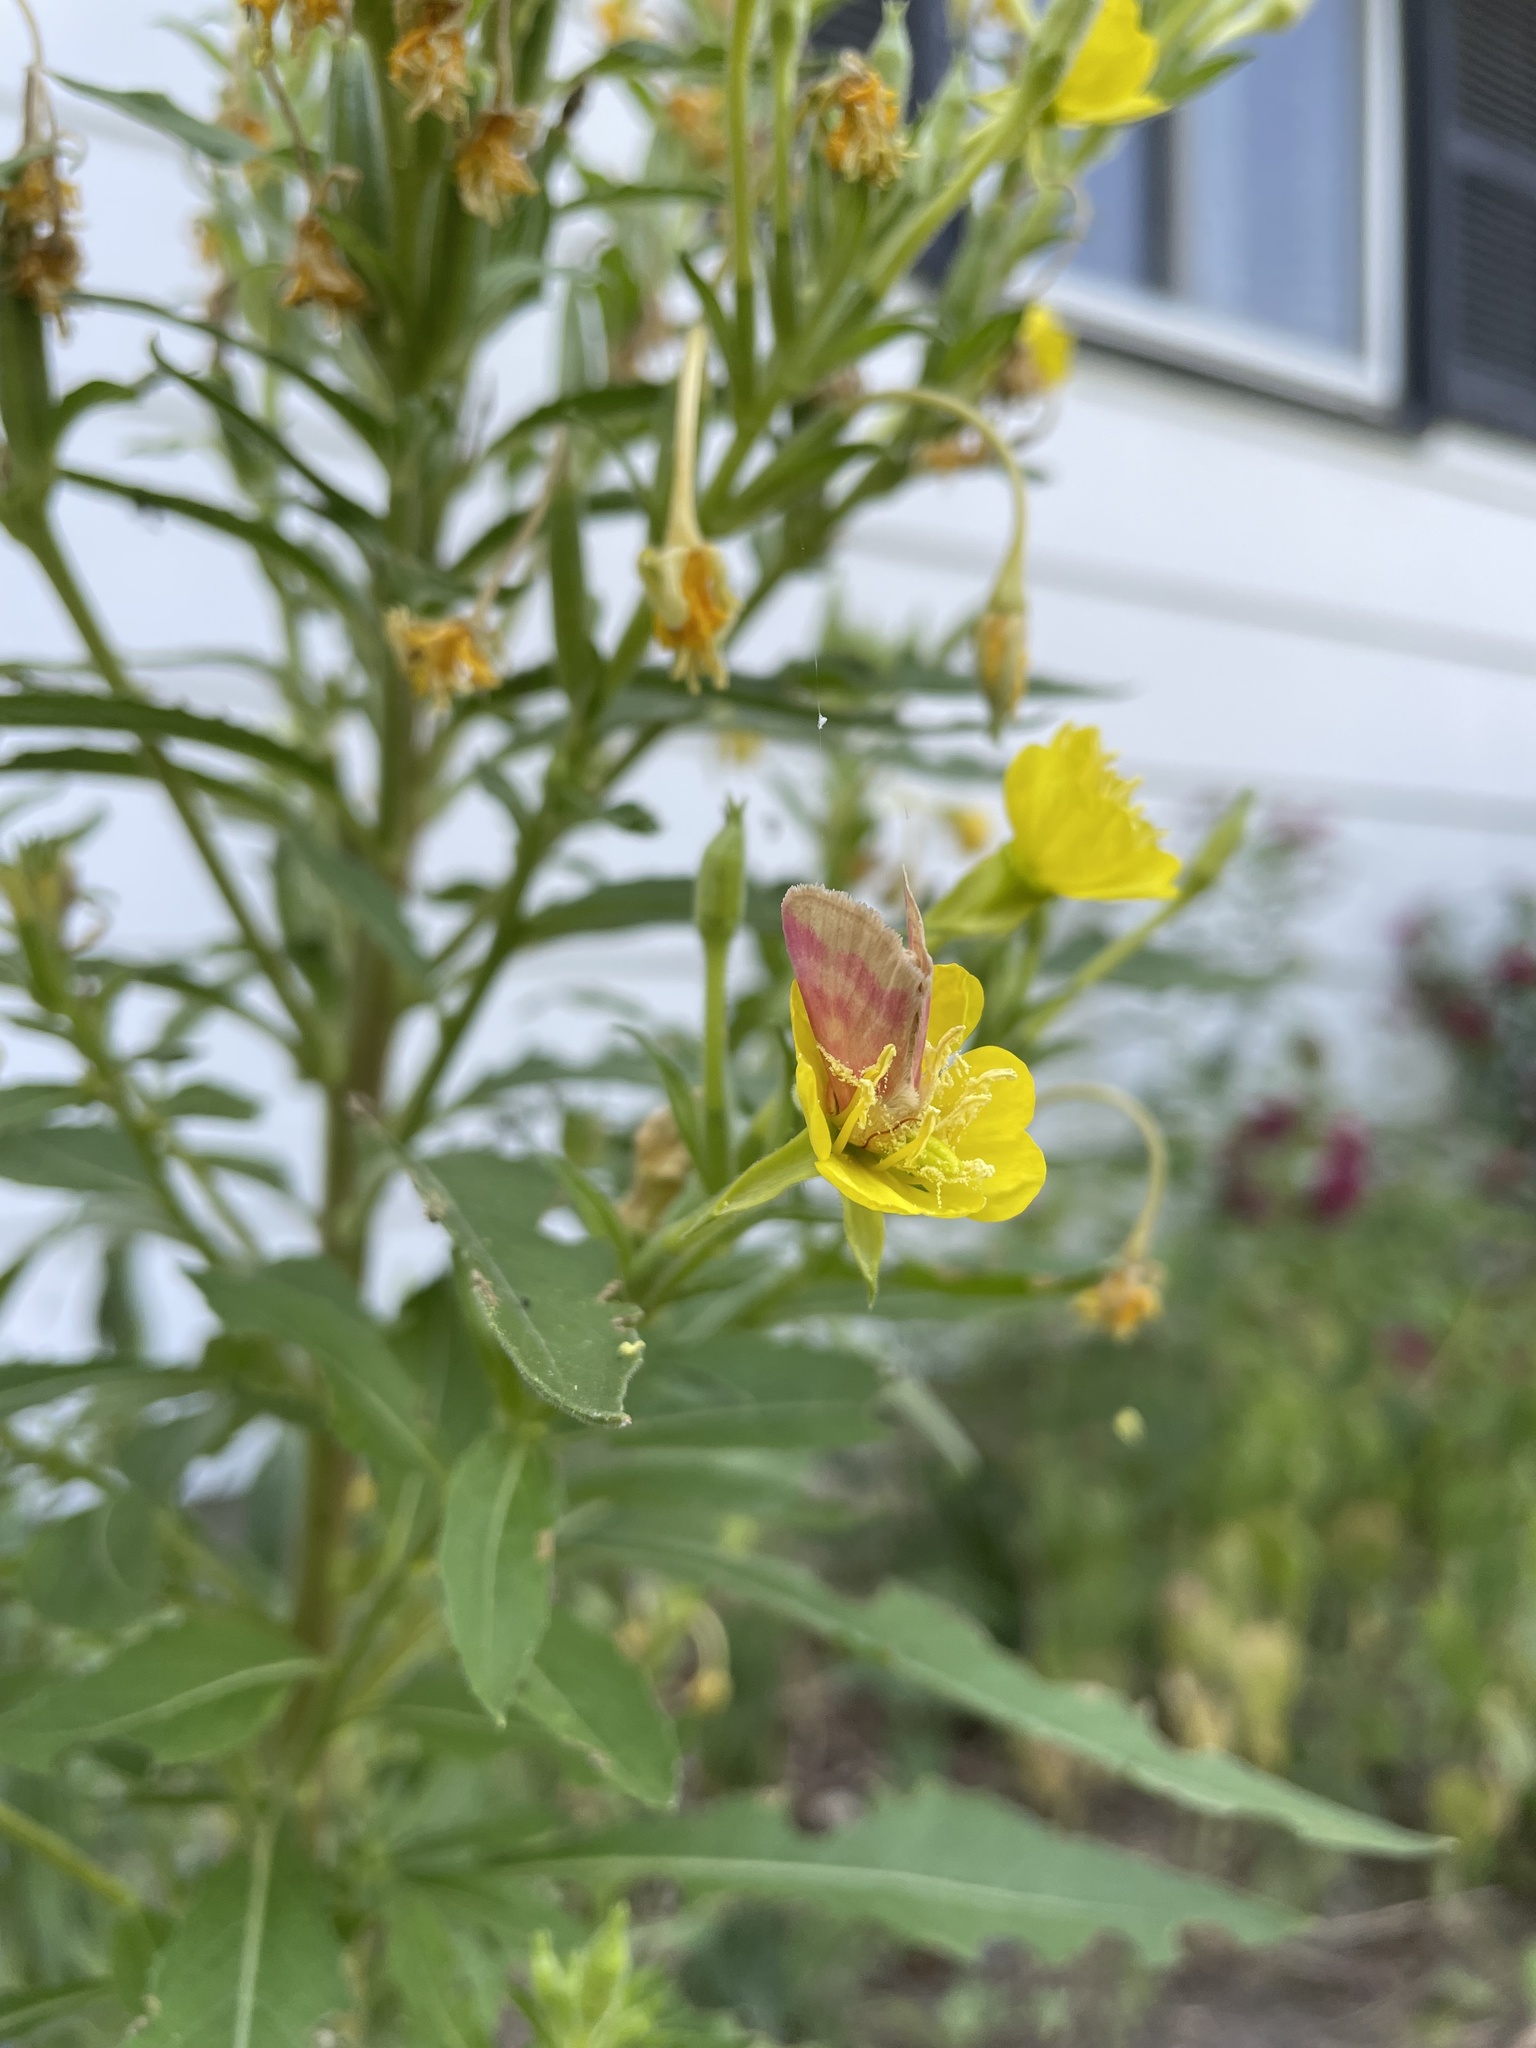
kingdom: Animalia
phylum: Arthropoda
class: Insecta
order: Lepidoptera
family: Noctuidae
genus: Schinia
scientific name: Schinia florida
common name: Primrose moth
